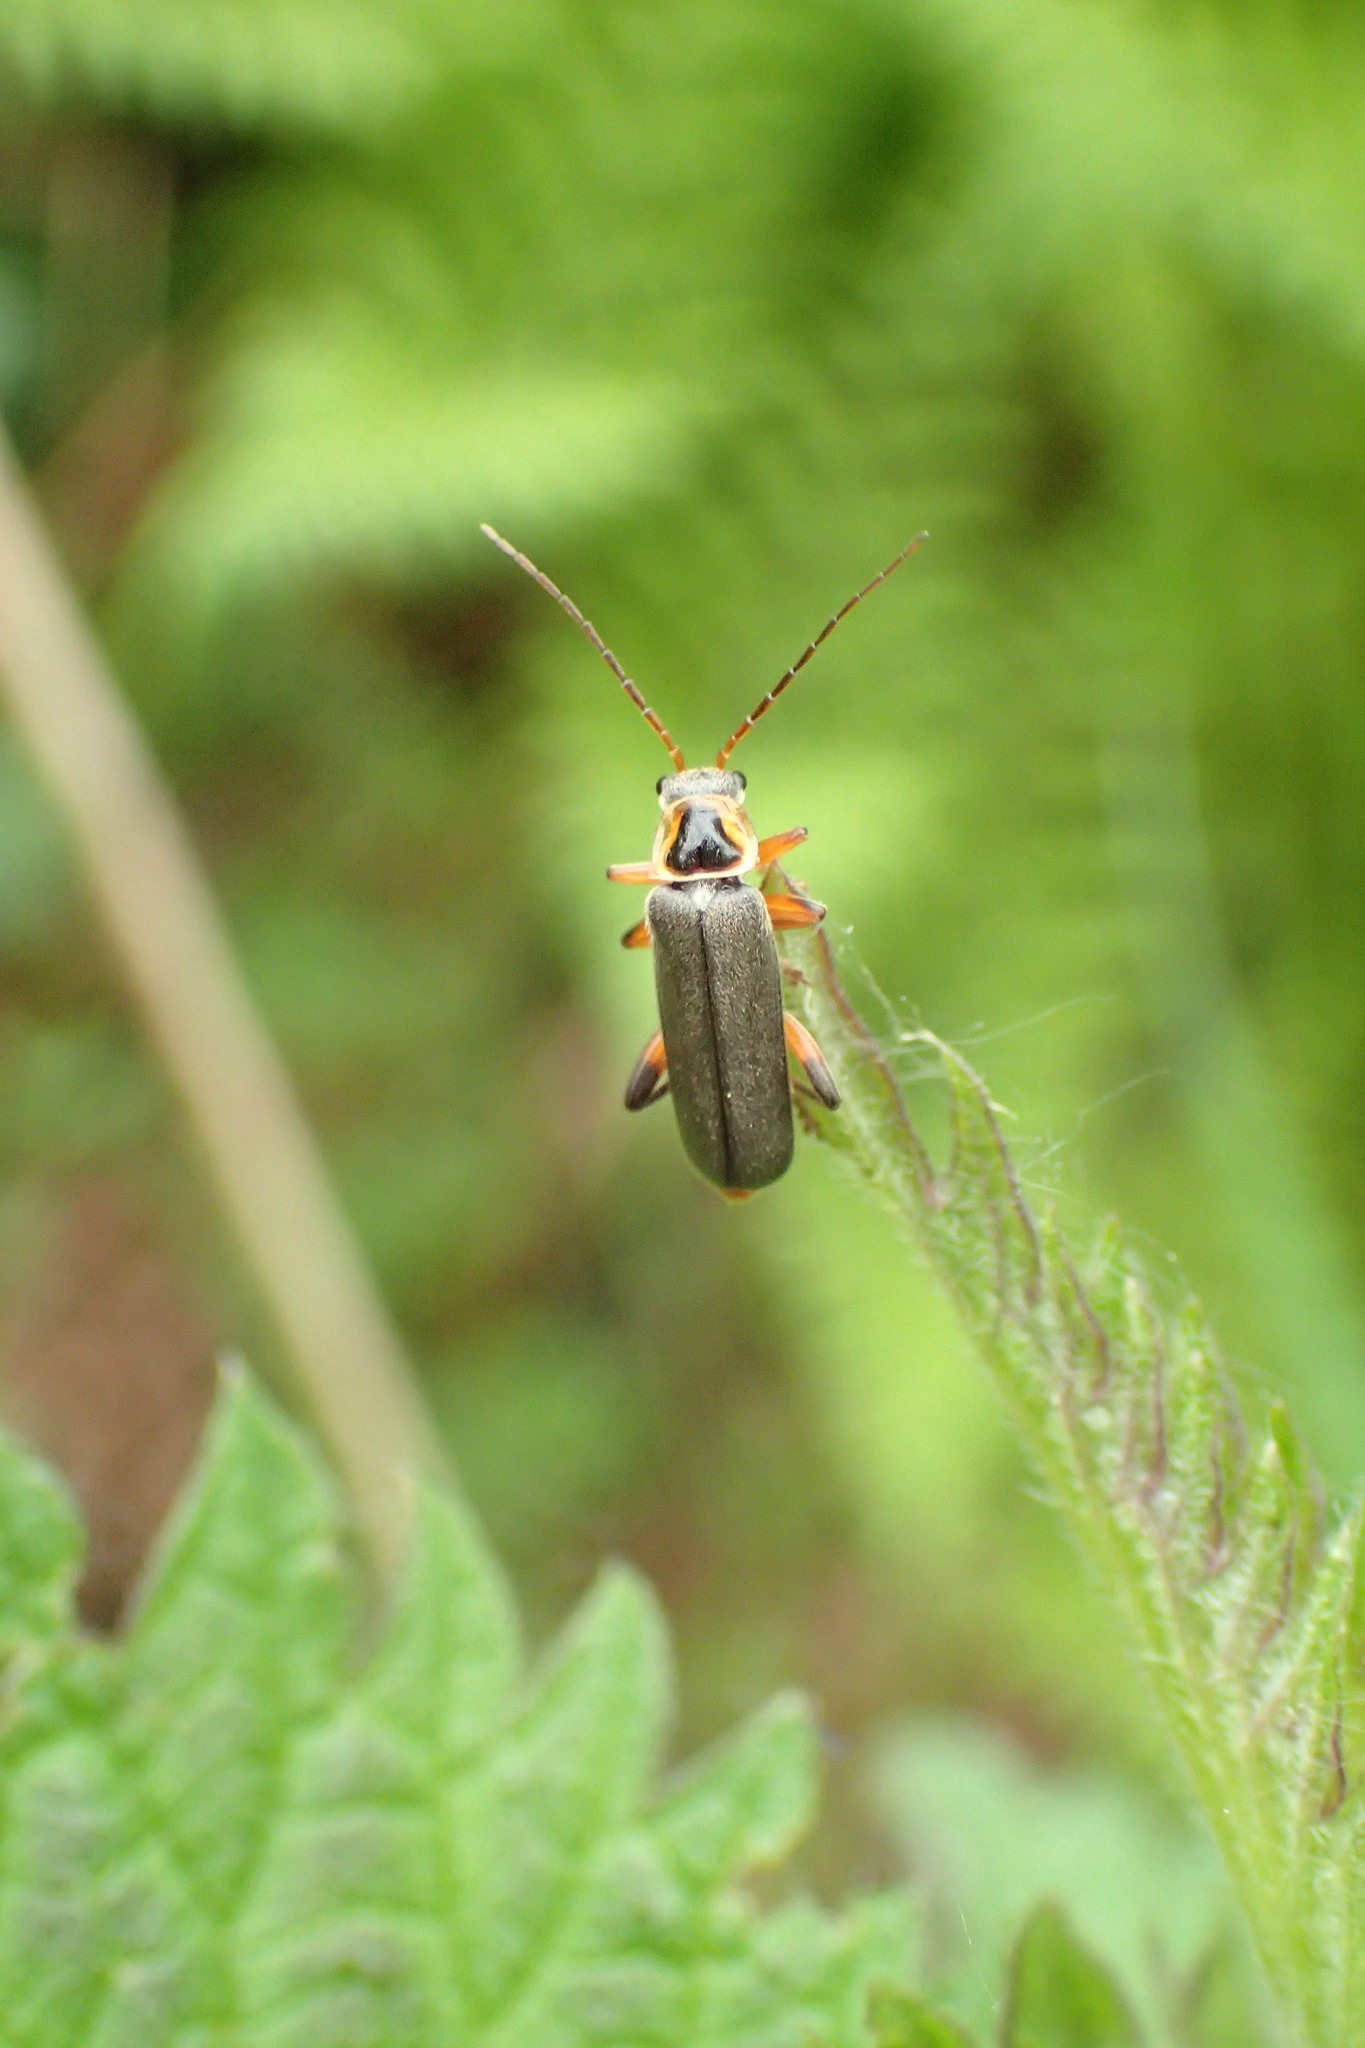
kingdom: Animalia
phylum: Arthropoda
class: Insecta
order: Coleoptera
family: Cantharidae
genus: Cantharis
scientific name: Cantharis nigricans
